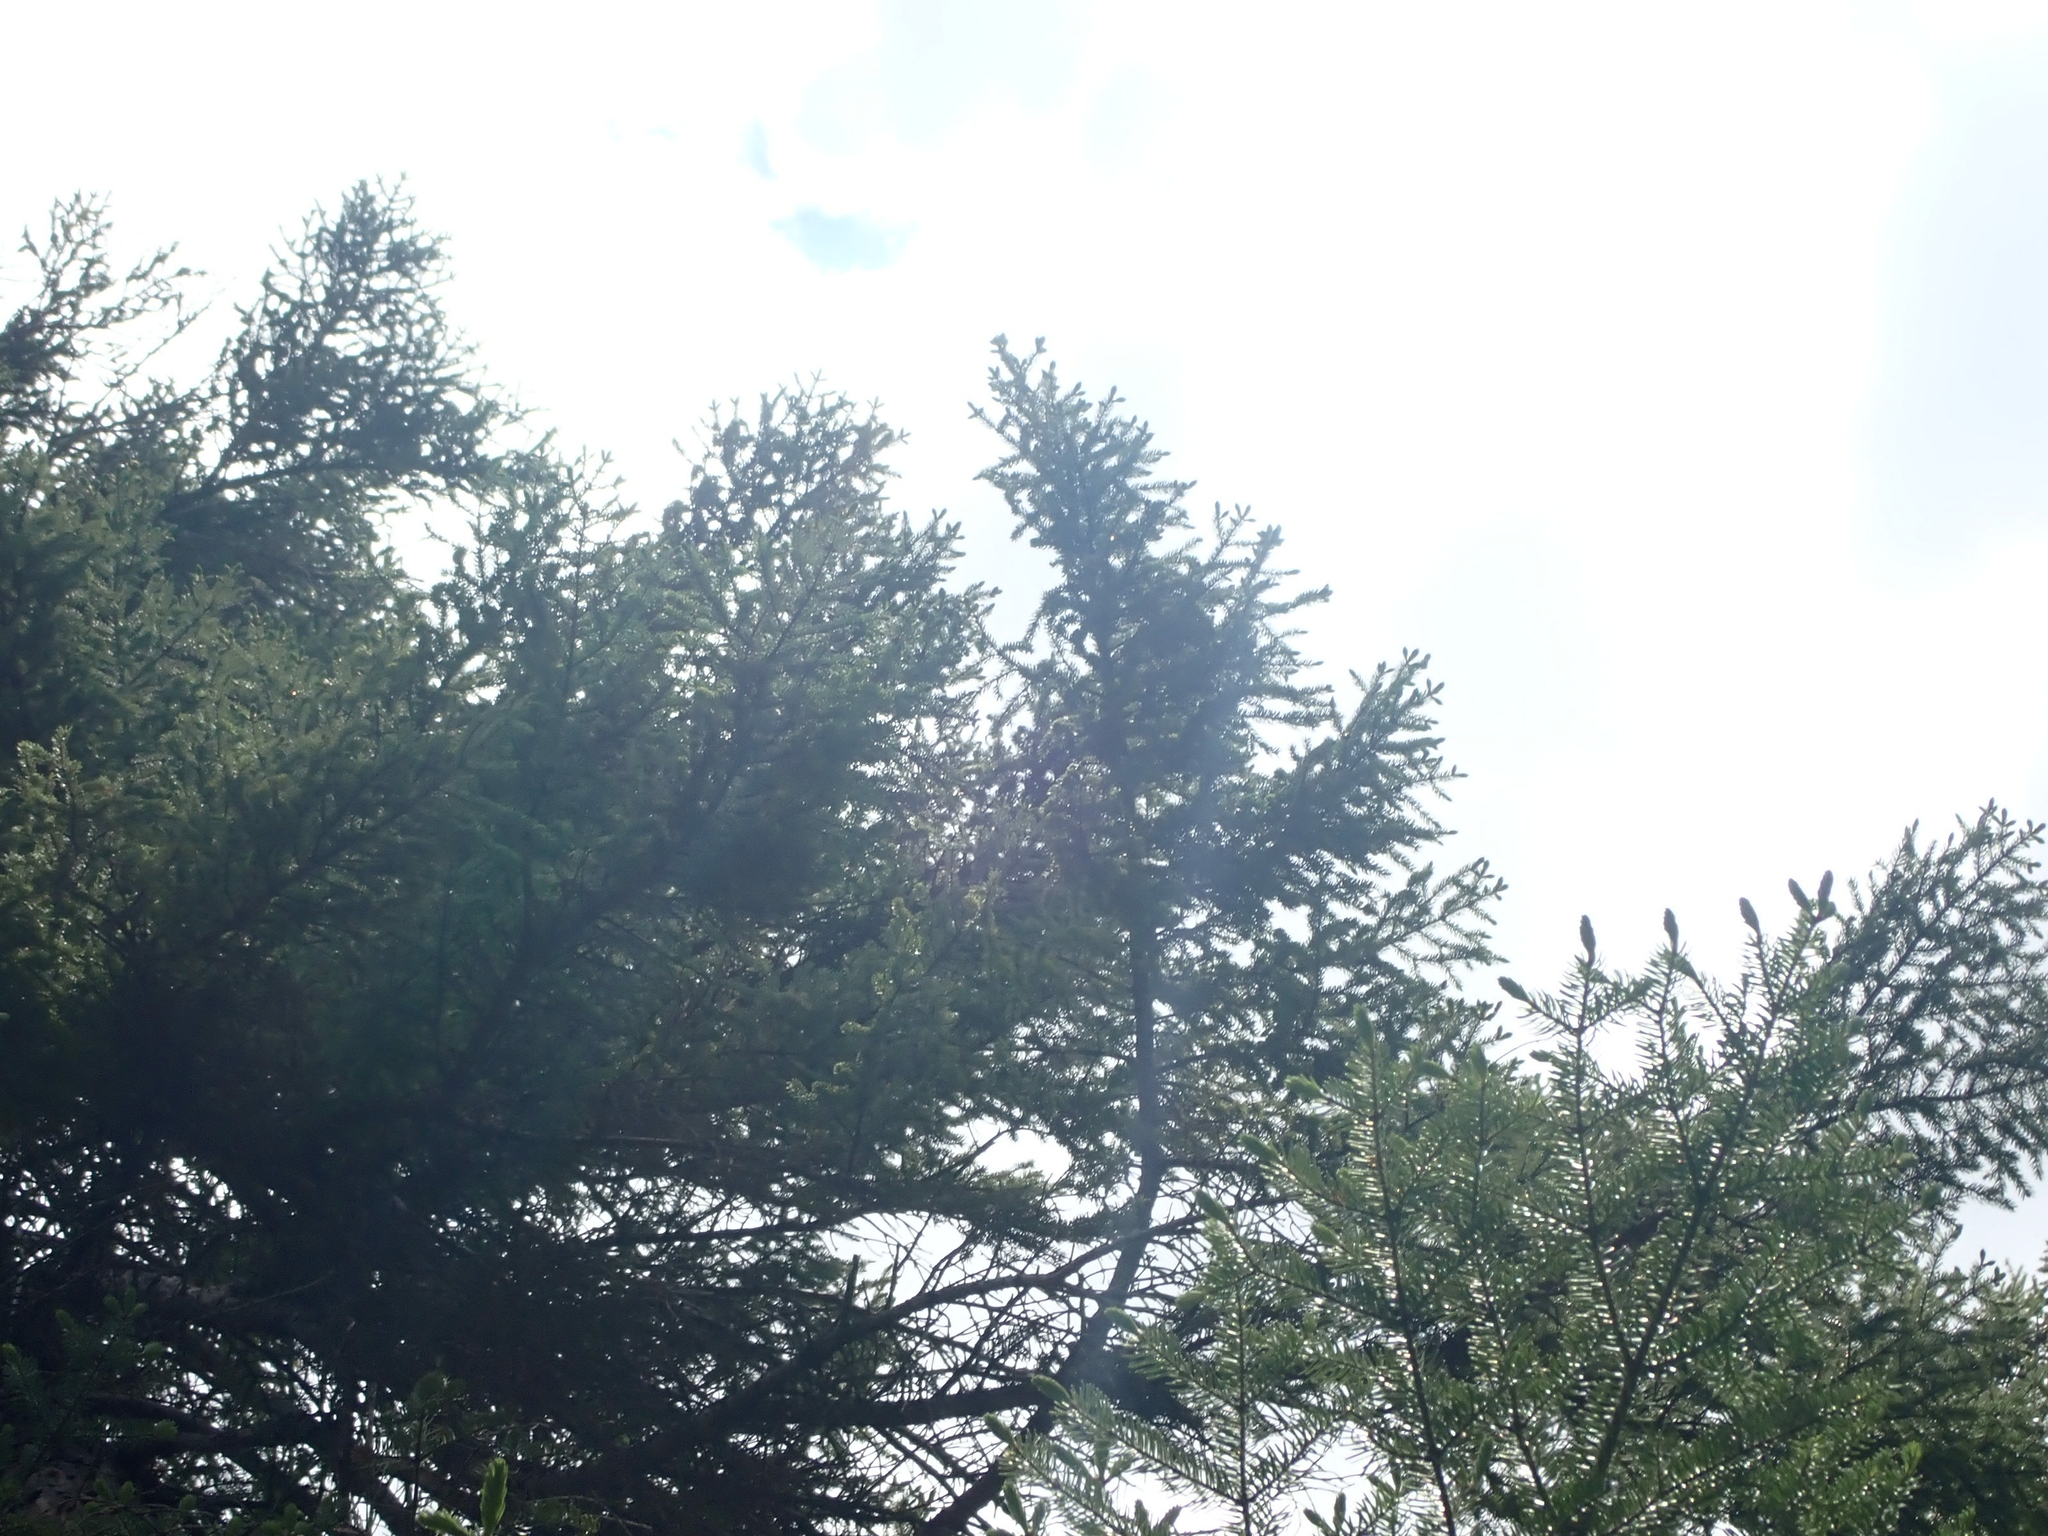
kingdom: Plantae
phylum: Tracheophyta
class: Pinopsida
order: Pinales
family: Pinaceae
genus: Picea
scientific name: Picea mariana
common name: Black spruce
